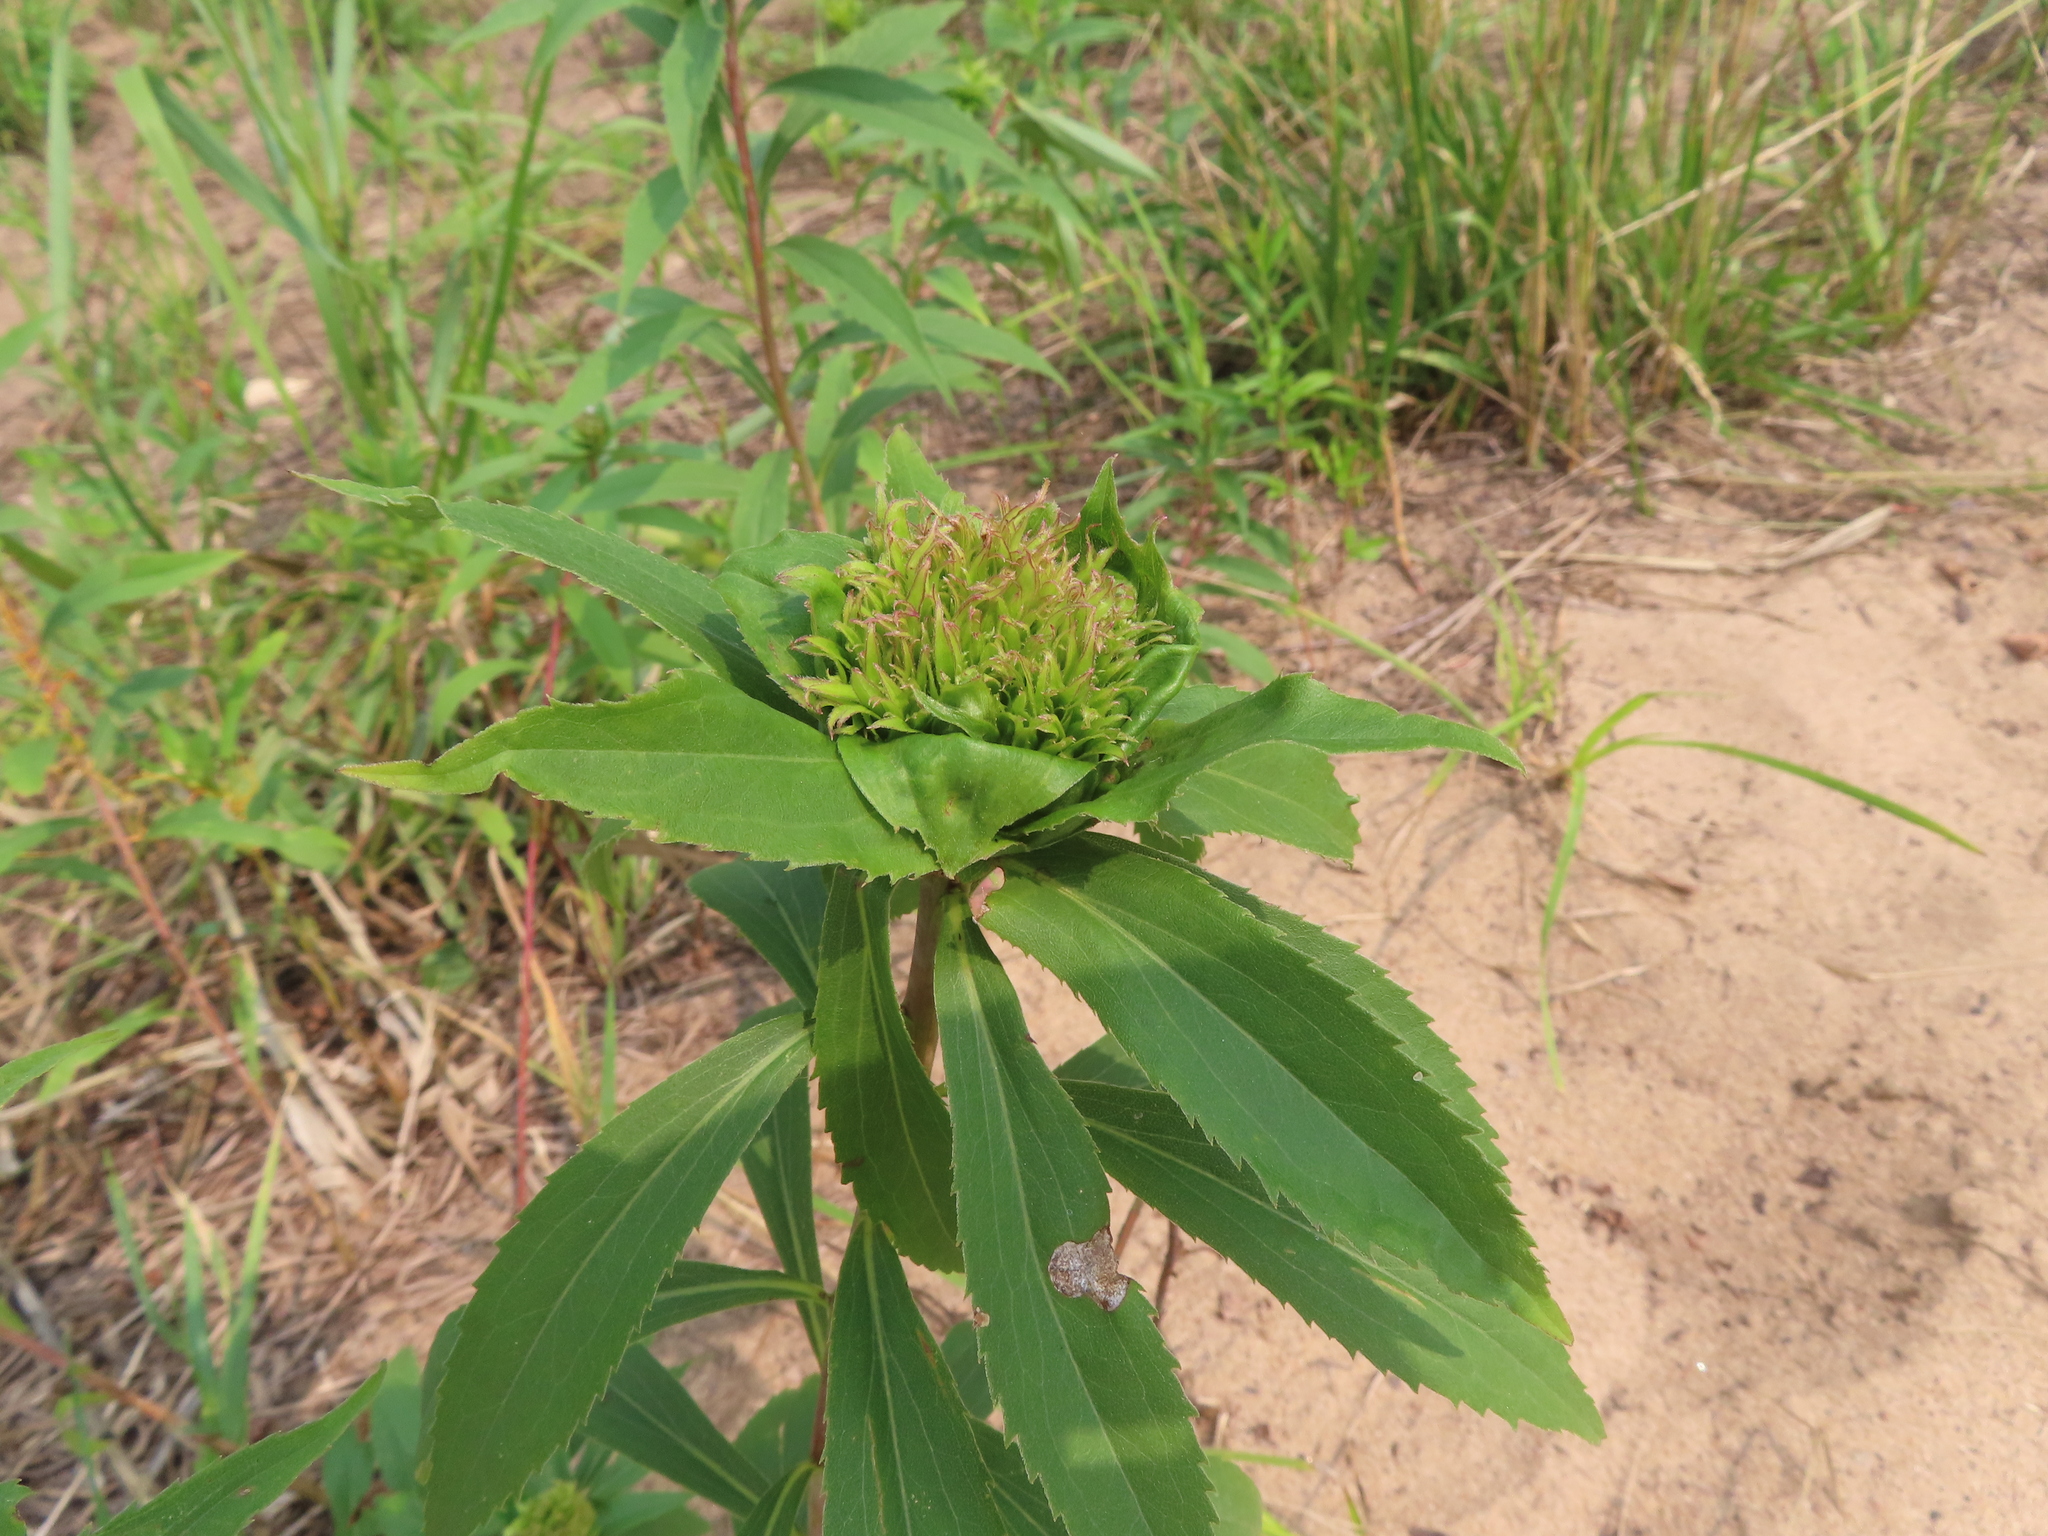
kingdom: Animalia
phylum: Arthropoda
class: Insecta
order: Diptera
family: Cecidomyiidae
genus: Rhopalomyia
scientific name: Rhopalomyia capitata
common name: Giant goldenrod bunch gall midge
